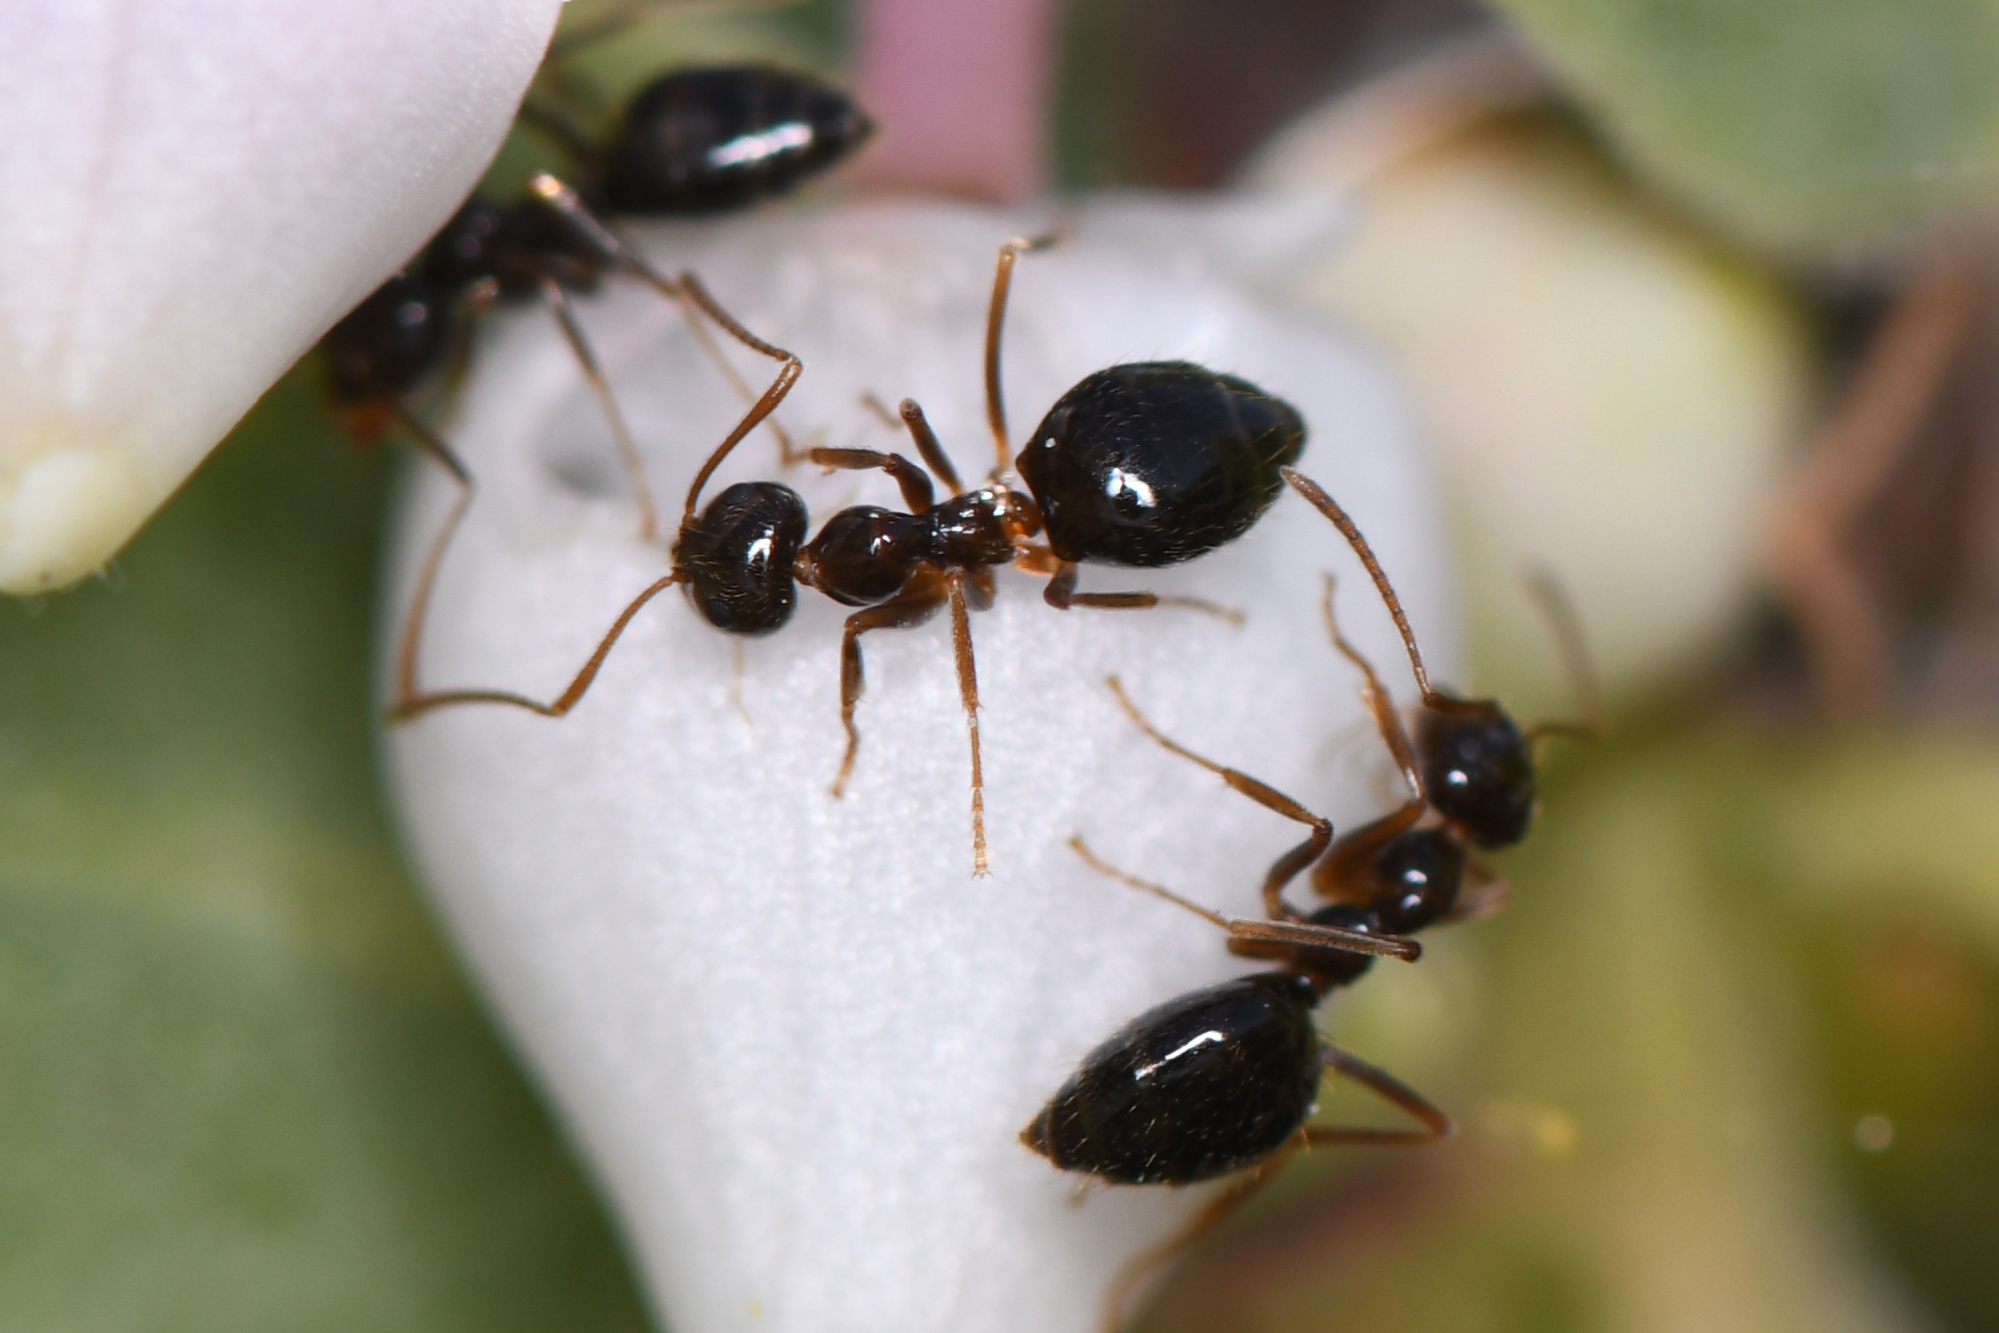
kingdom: Animalia
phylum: Arthropoda
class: Insecta
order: Hymenoptera
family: Formicidae
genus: Prenolepis
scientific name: Prenolepis imparis
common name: Small honey ant
